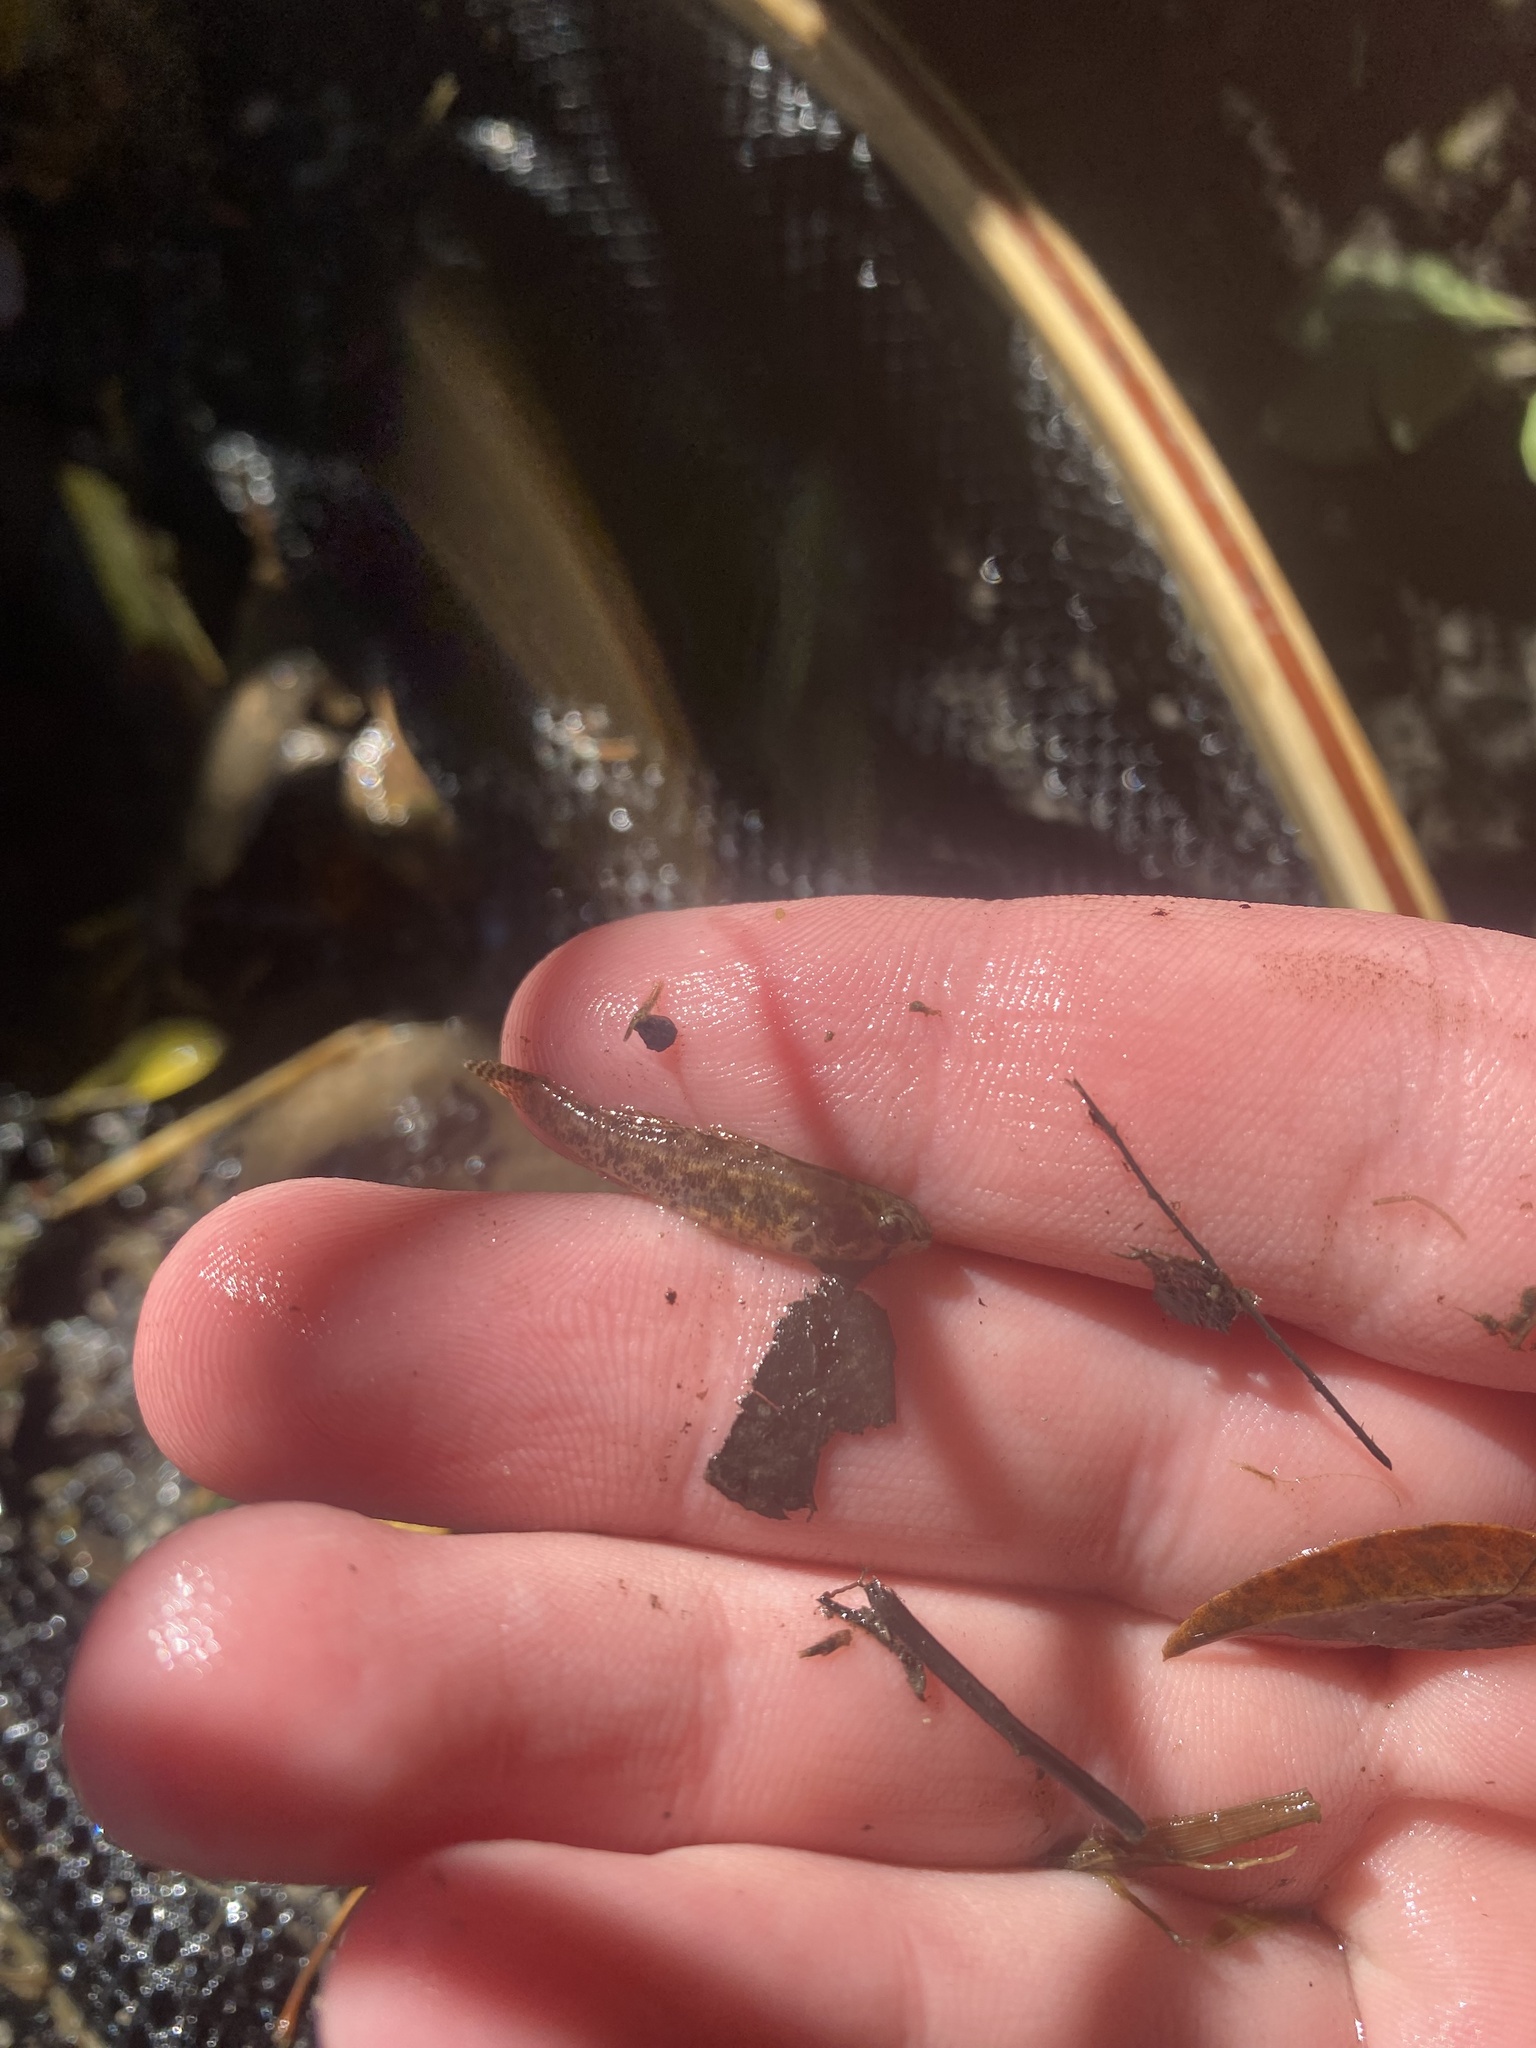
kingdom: Animalia
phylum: Chordata
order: Perciformes
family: Percidae
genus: Etheostoma
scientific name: Etheostoma microperca
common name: Least darter
